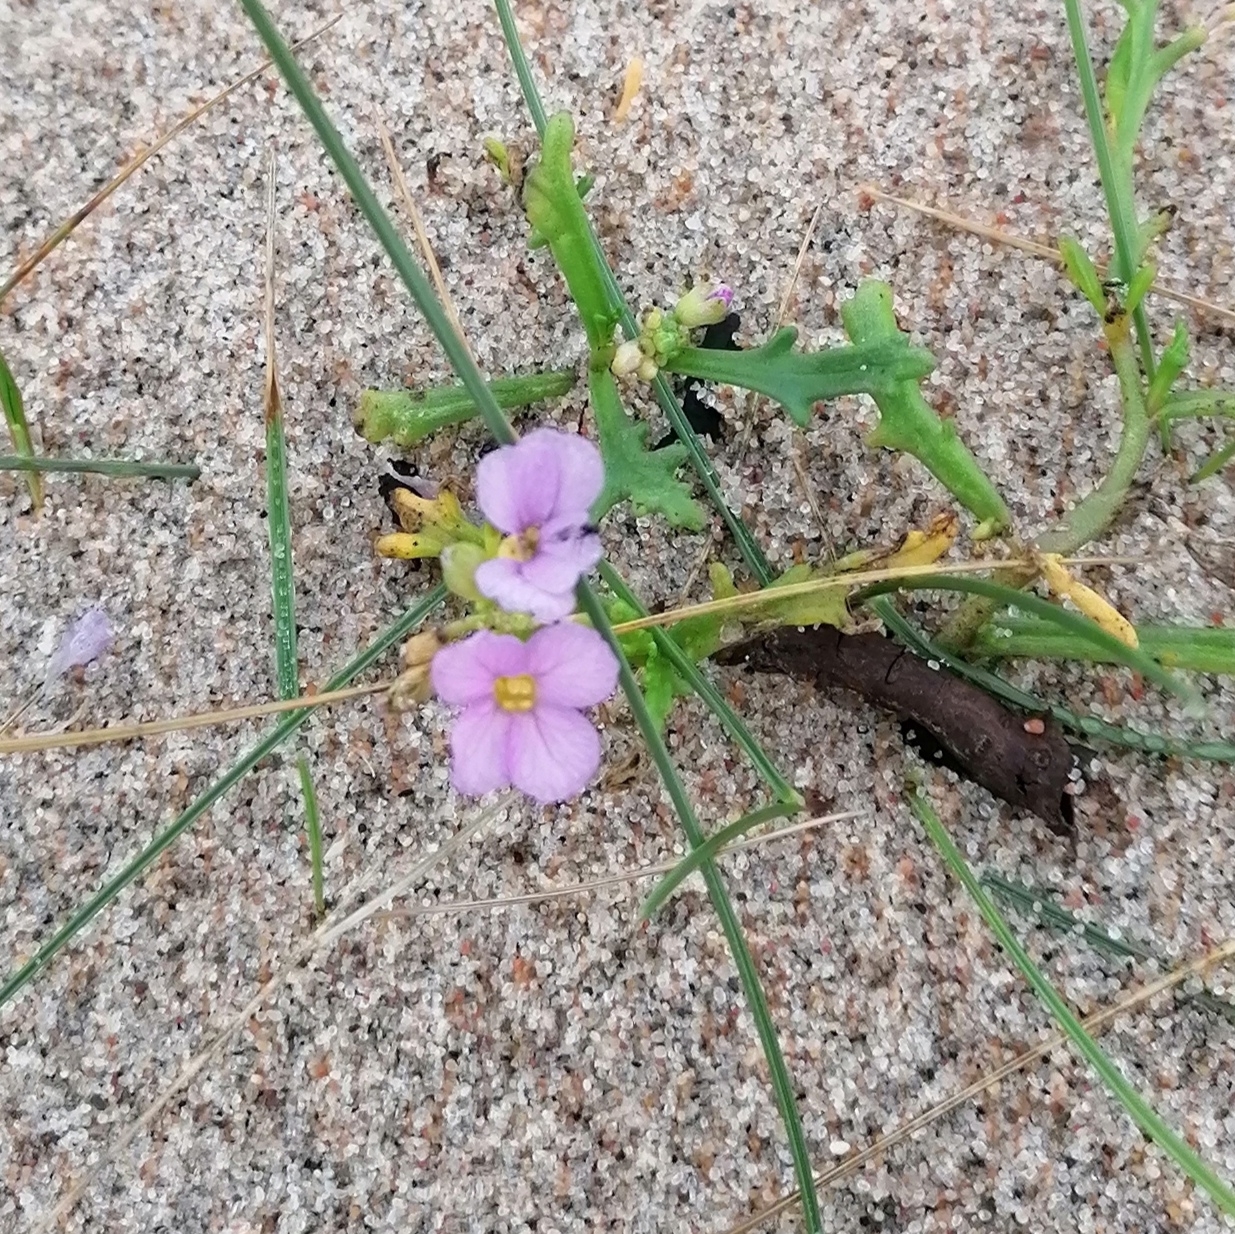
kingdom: Plantae
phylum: Tracheophyta
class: Magnoliopsida
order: Brassicales
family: Brassicaceae
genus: Cakile
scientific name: Cakile maritima
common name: Sea rocket
